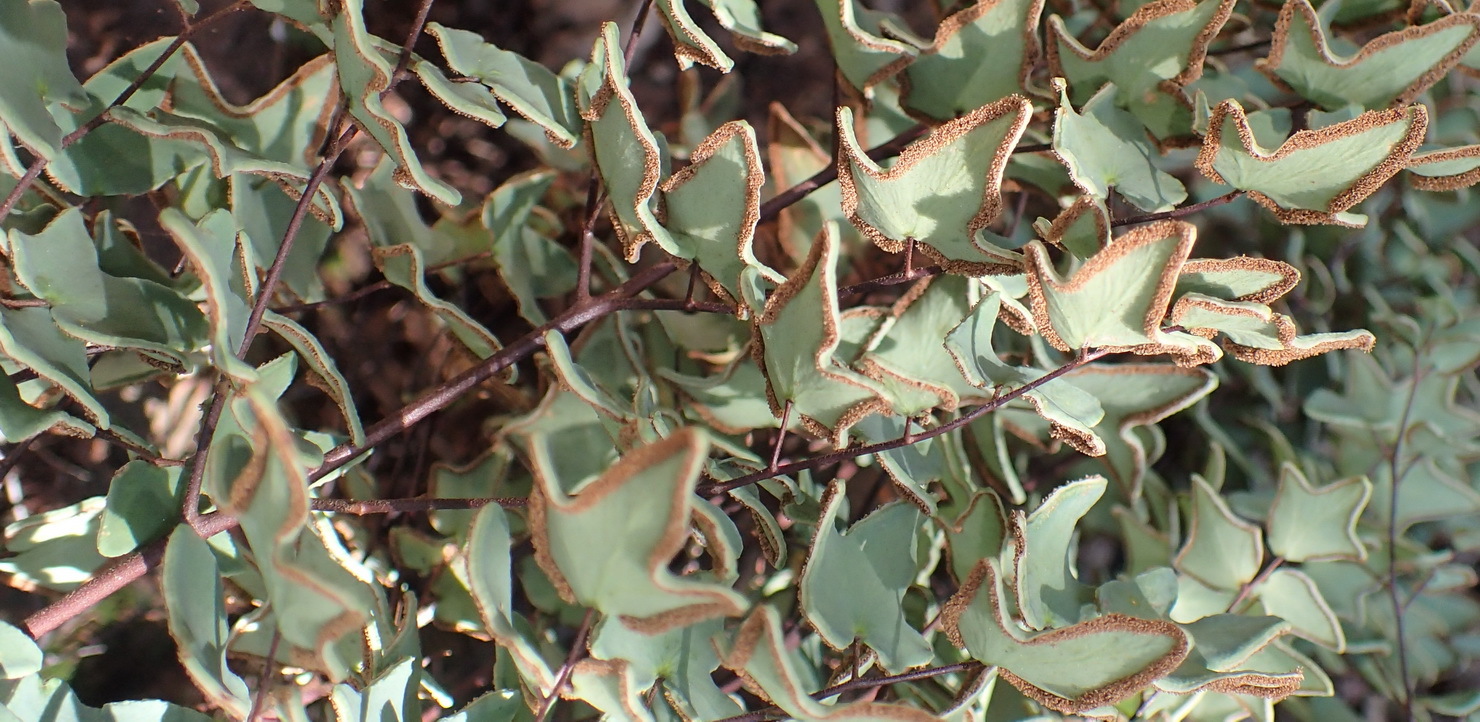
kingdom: Plantae
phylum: Tracheophyta
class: Polypodiopsida
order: Polypodiales
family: Pteridaceae
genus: Pellaea
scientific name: Pellaea calomelanos
